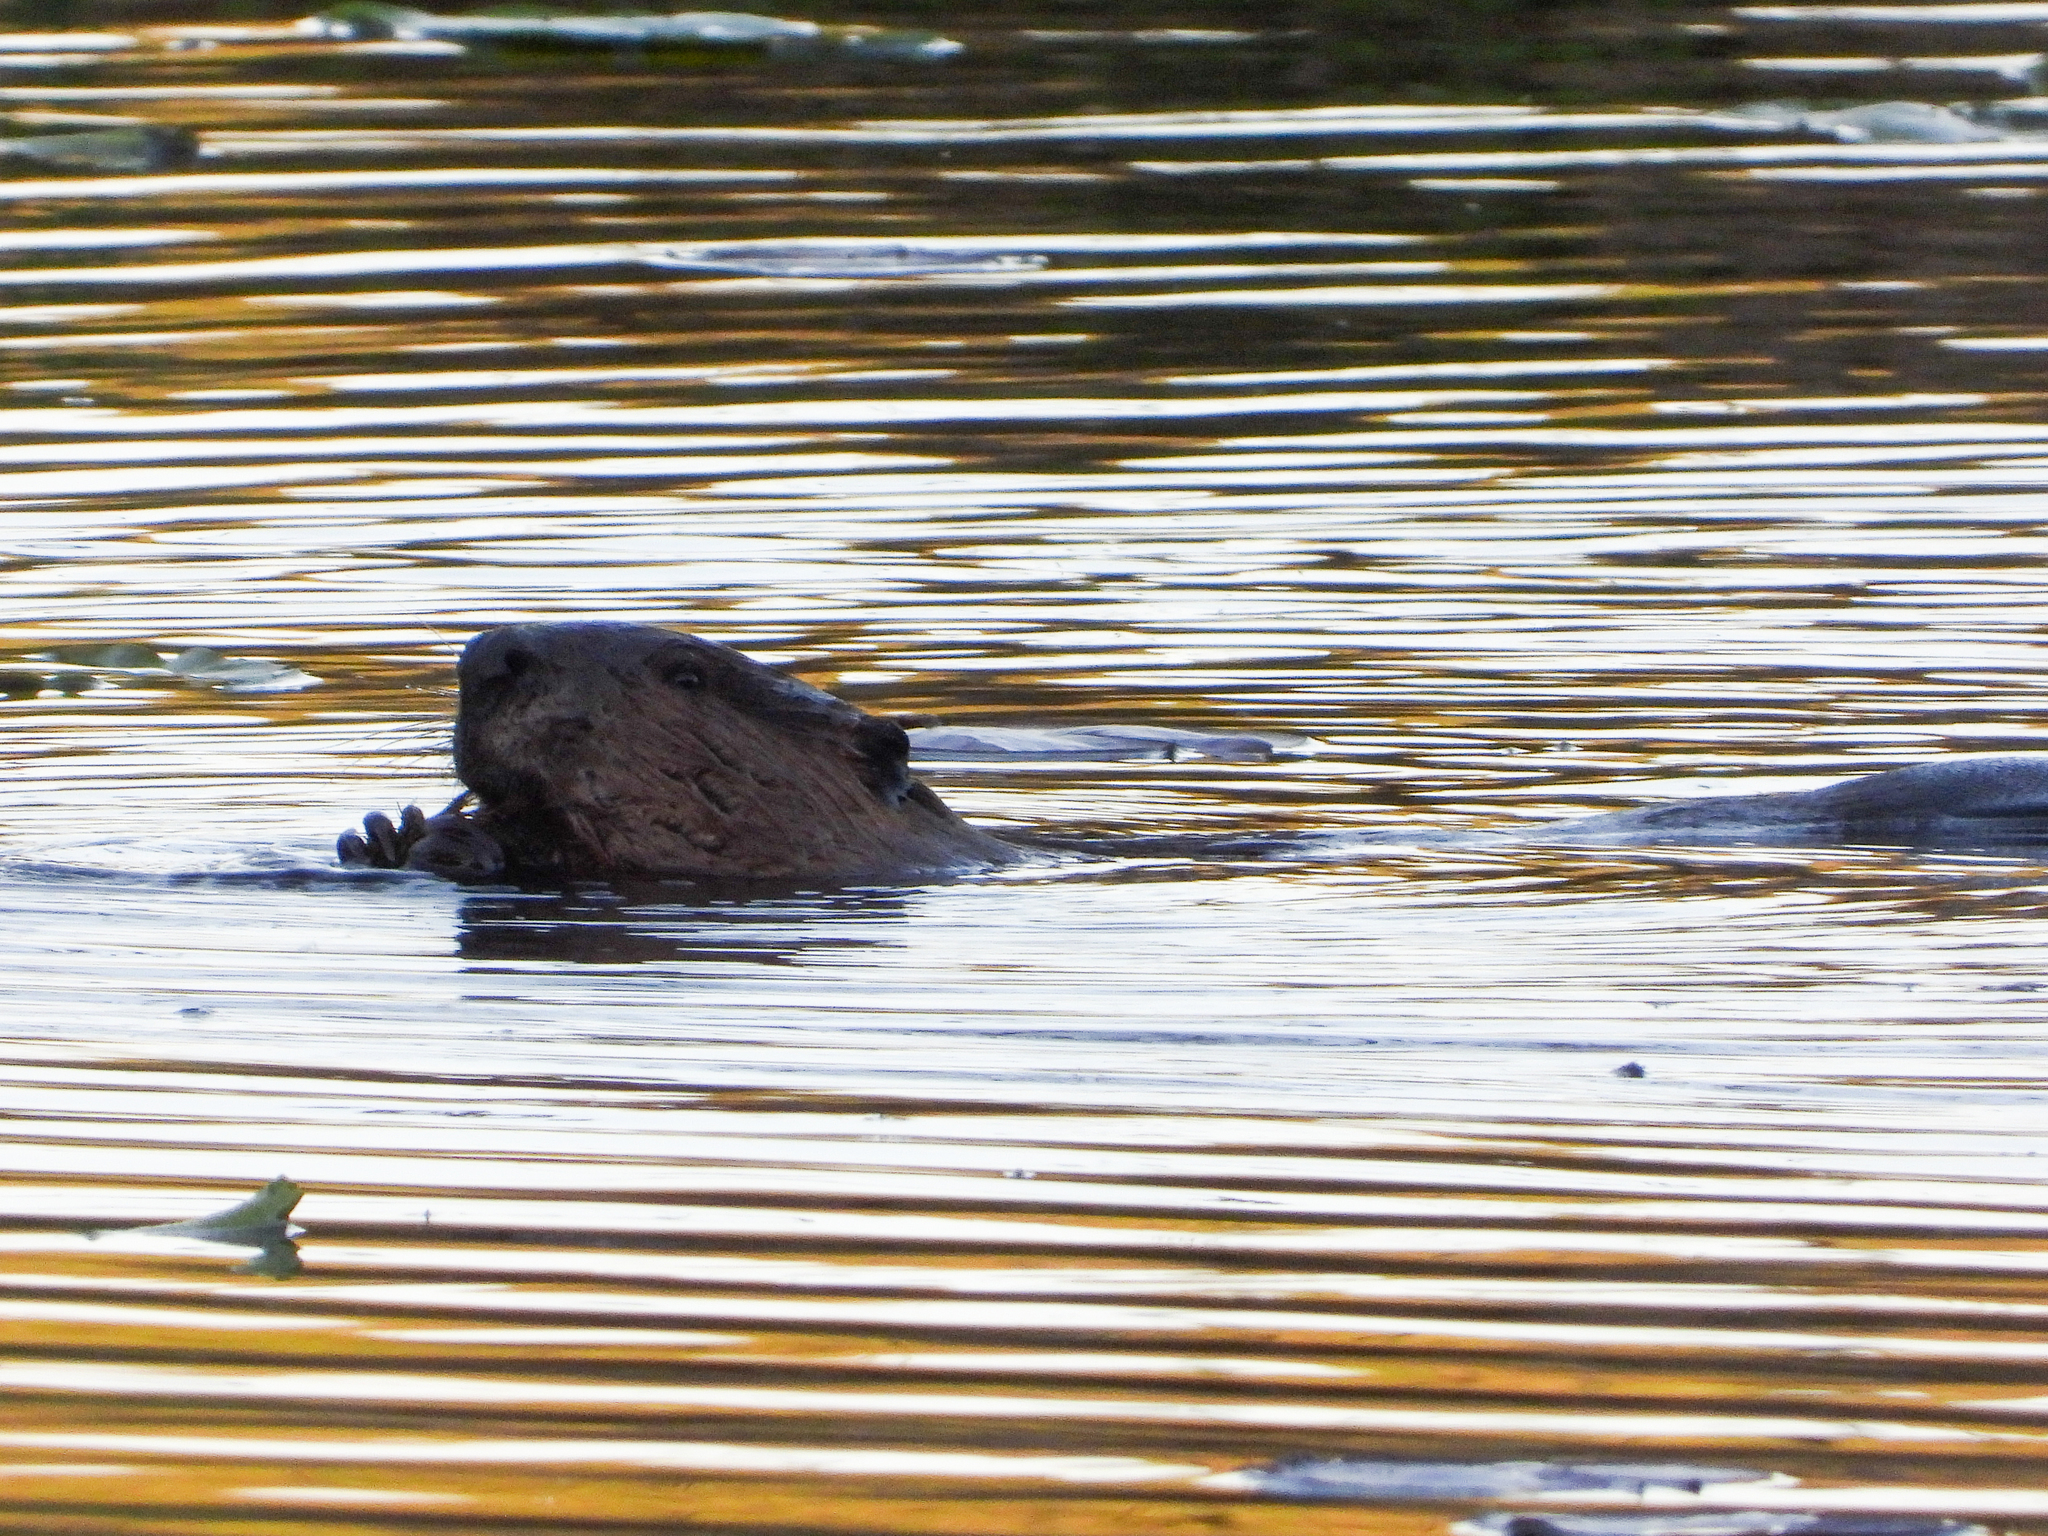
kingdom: Animalia
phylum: Chordata
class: Mammalia
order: Rodentia
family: Castoridae
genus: Castor
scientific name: Castor canadensis
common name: American beaver
